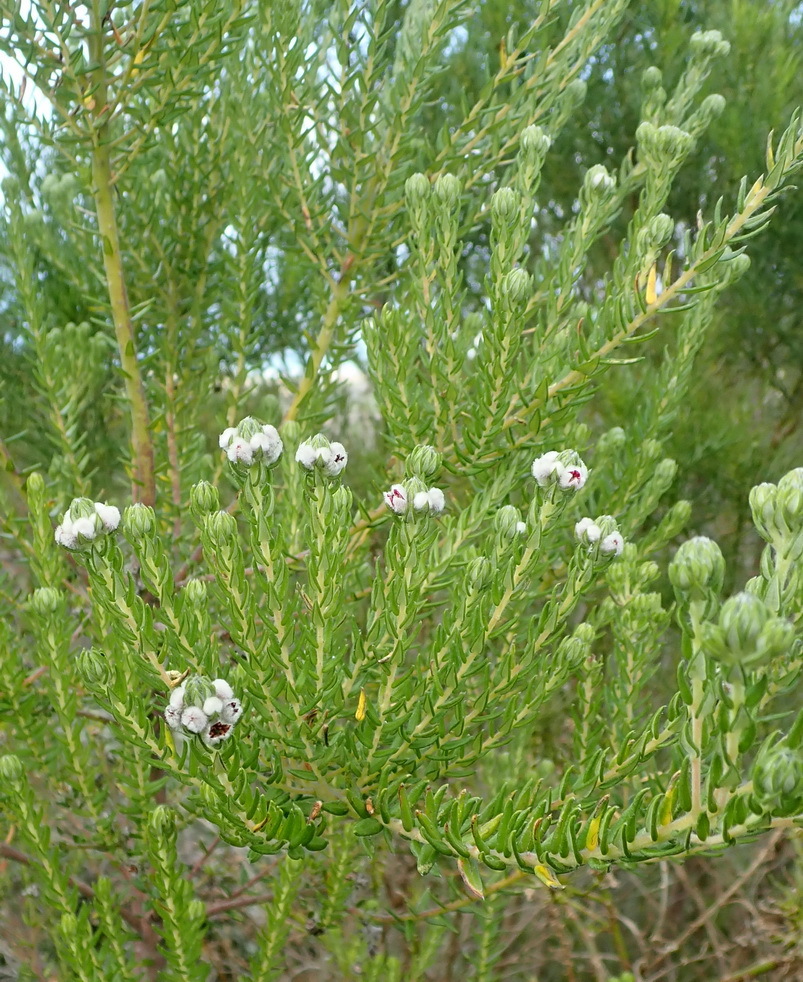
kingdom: Plantae
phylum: Tracheophyta
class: Magnoliopsida
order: Rosales
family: Rhamnaceae
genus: Phylica
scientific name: Phylica purpurea
